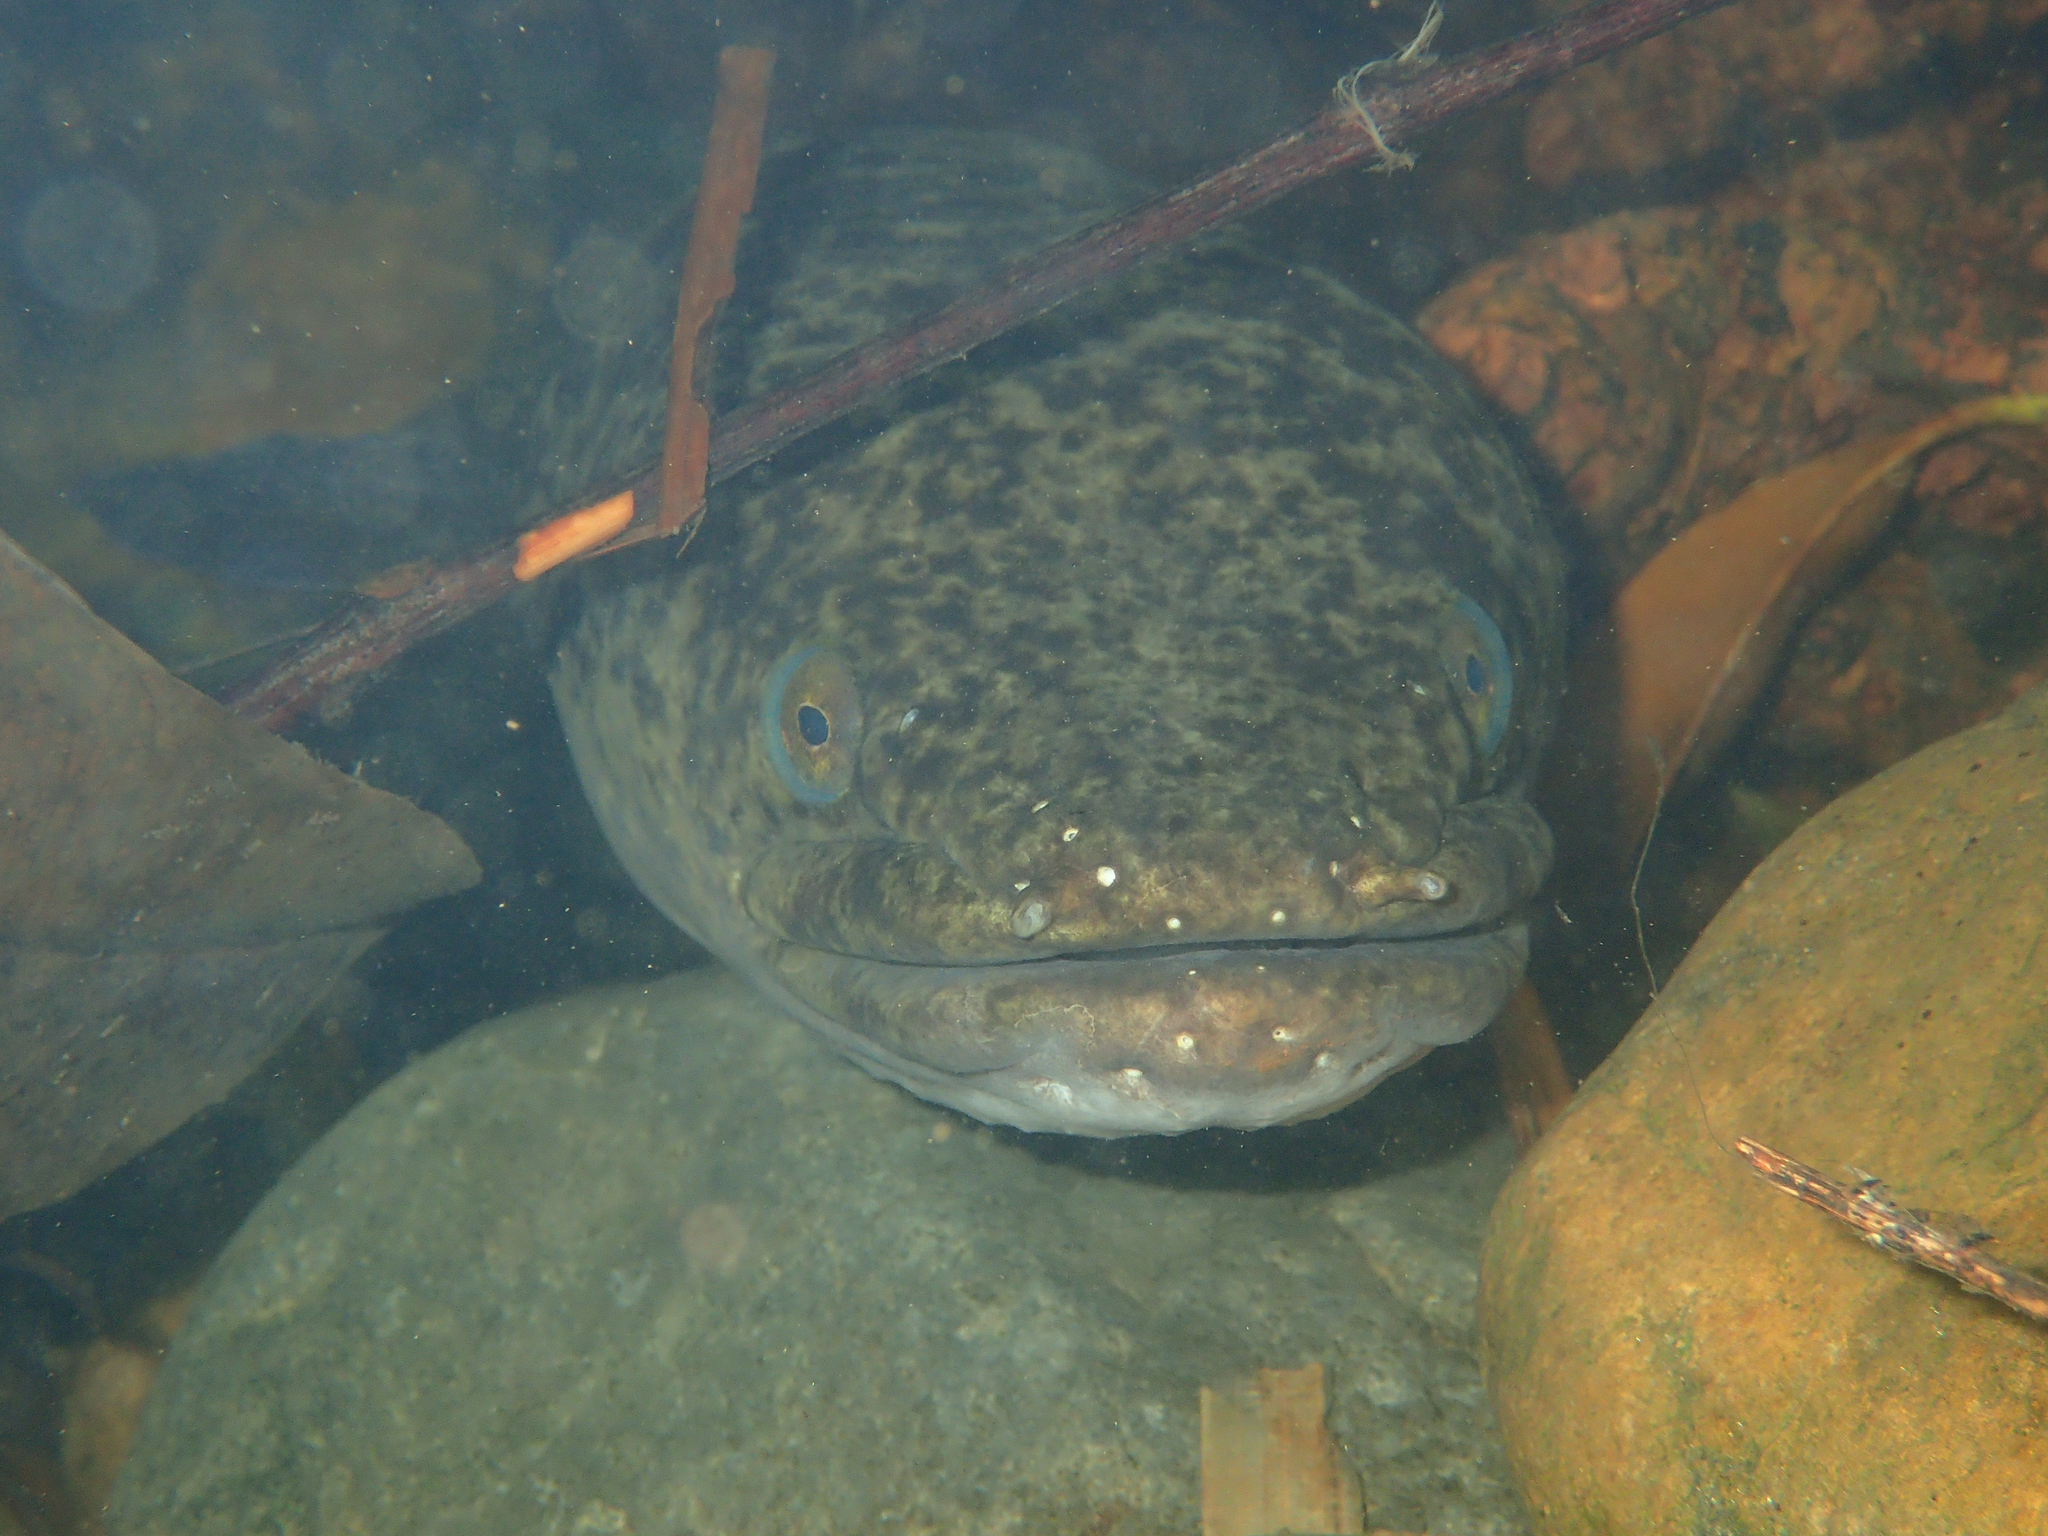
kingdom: Animalia
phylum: Chordata
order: Anguilliformes
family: Anguillidae
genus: Anguilla
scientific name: Anguilla marmorata
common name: Giant mottled eel
